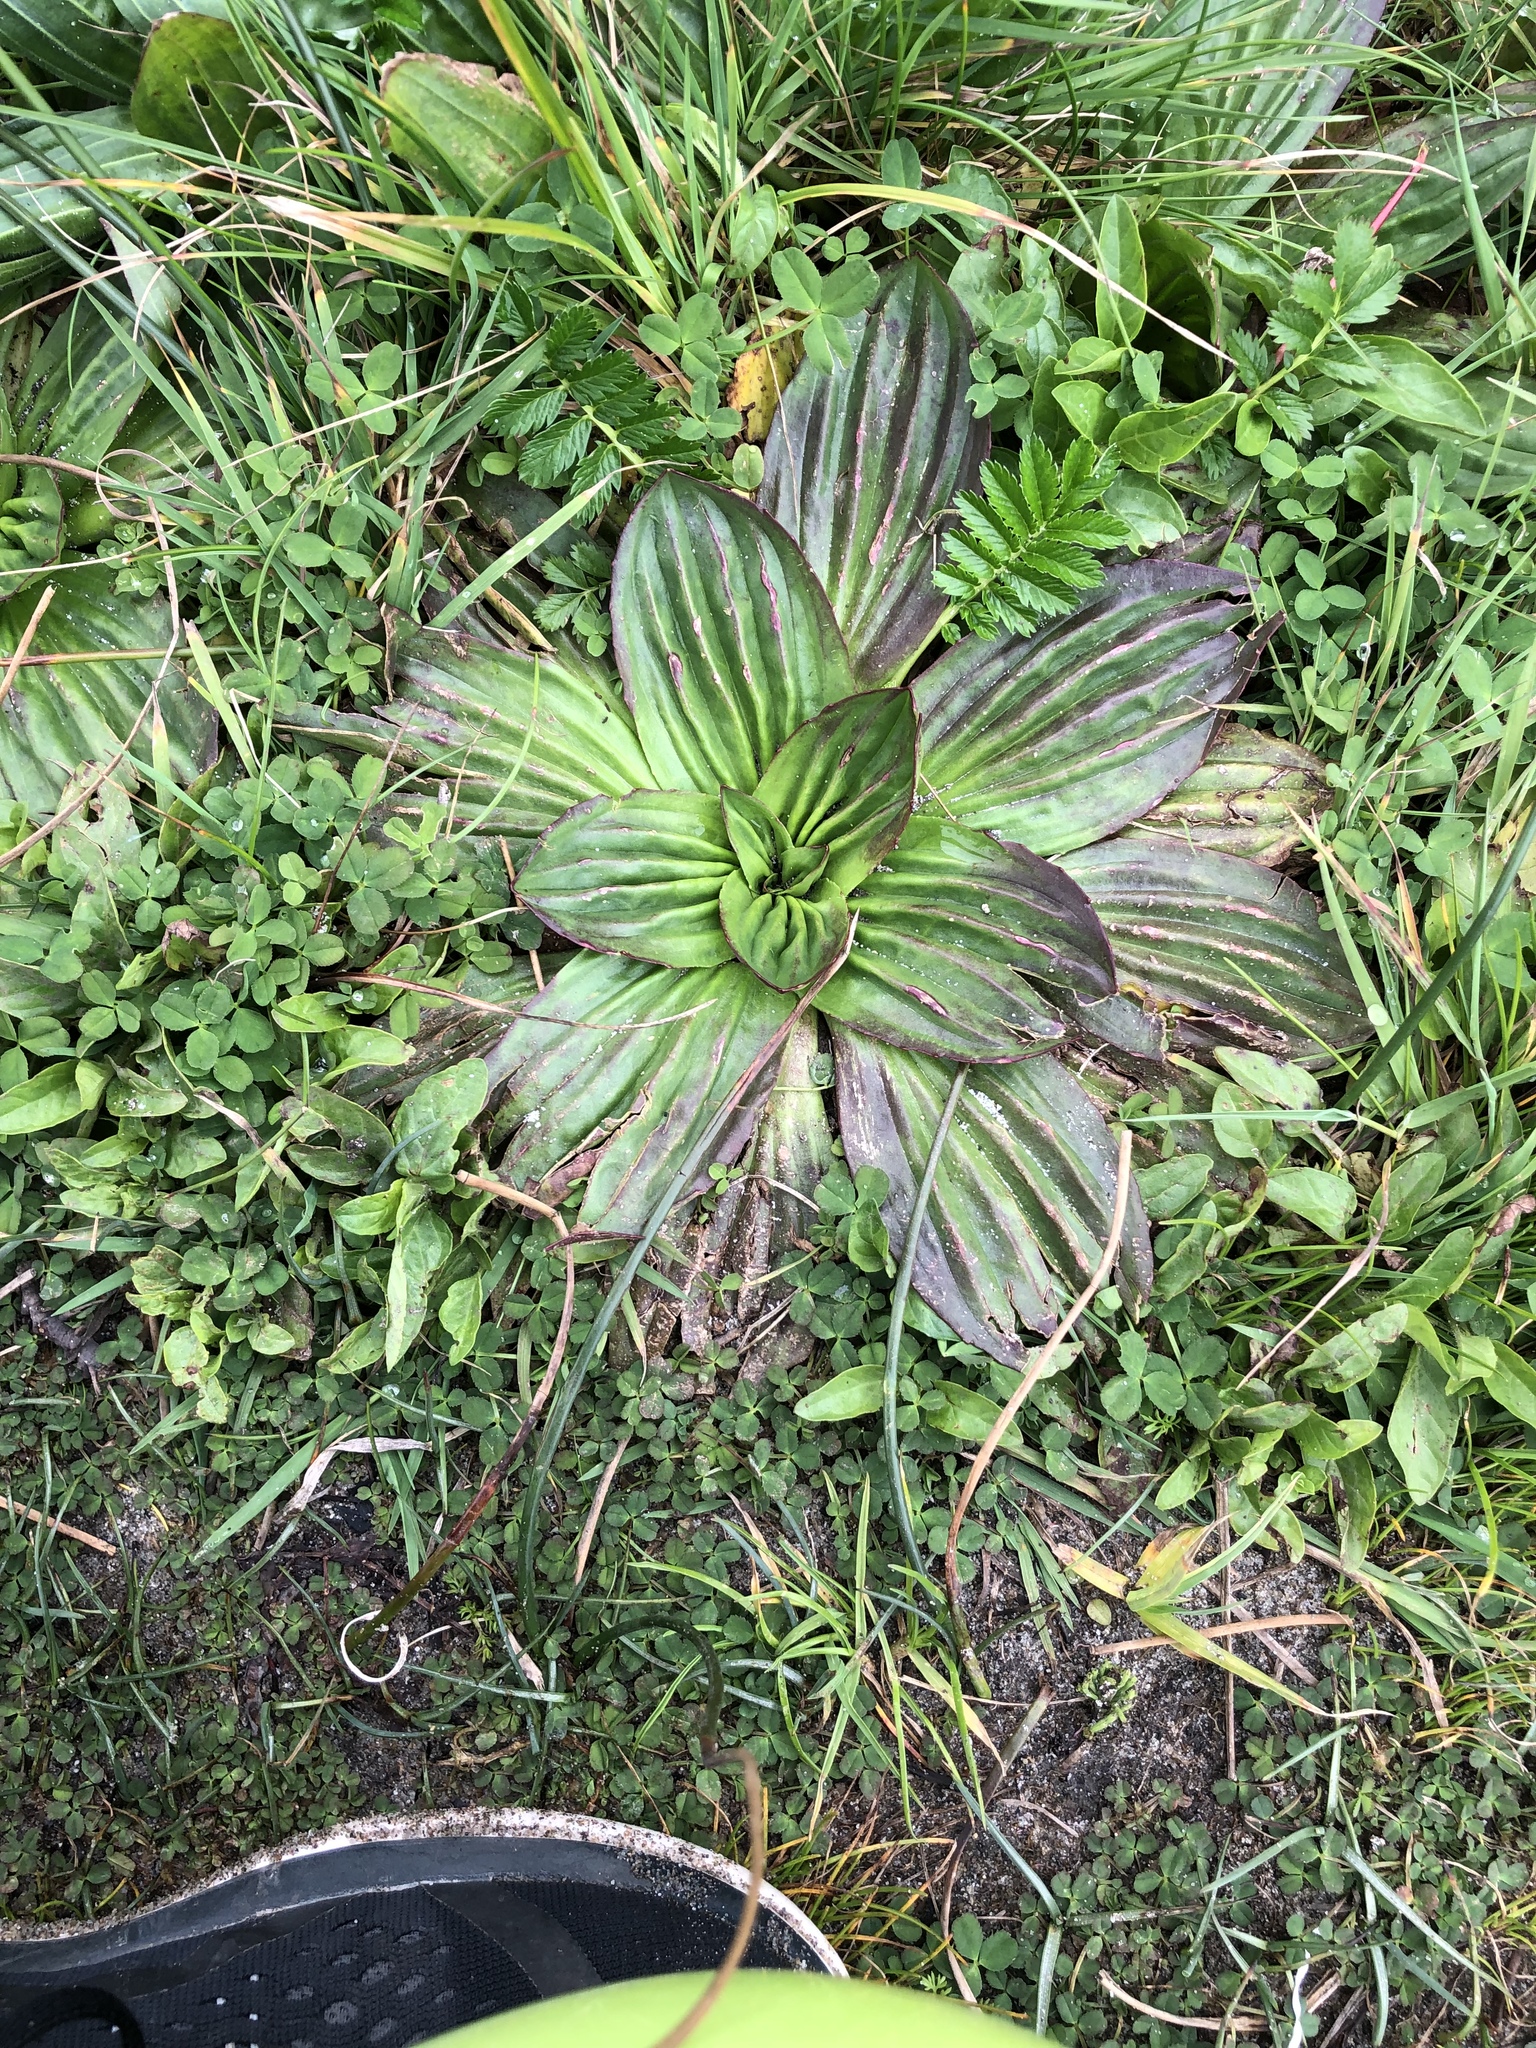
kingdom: Plantae
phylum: Tracheophyta
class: Magnoliopsida
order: Lamiales
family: Plantaginaceae
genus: Plantago
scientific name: Plantago subnuda
